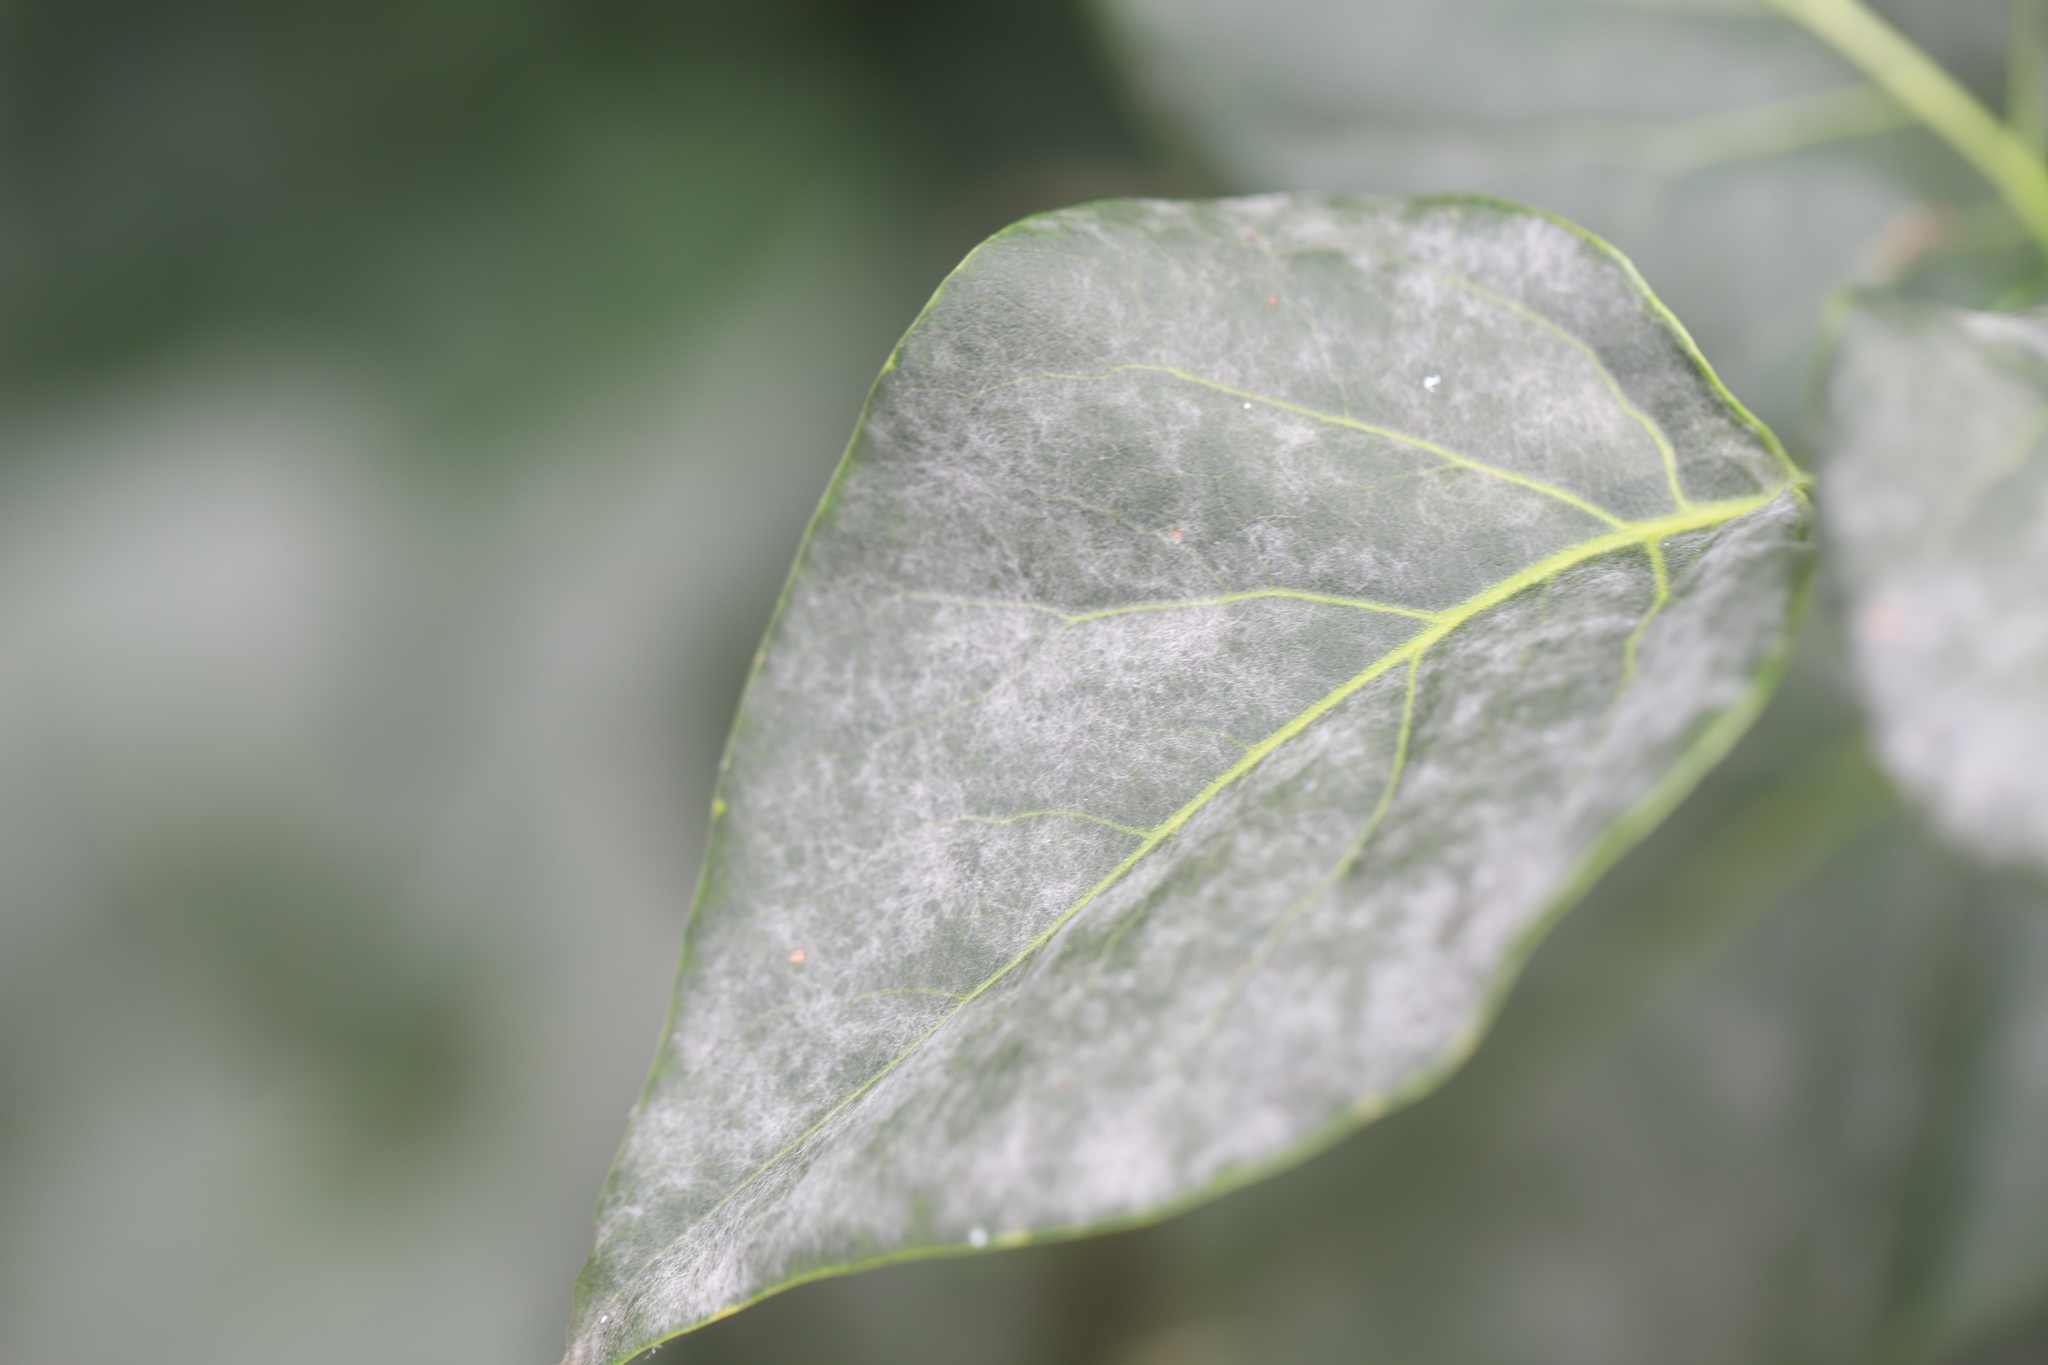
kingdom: Fungi
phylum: Ascomycota
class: Leotiomycetes
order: Helotiales
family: Erysiphaceae
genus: Erysiphe
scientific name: Erysiphe syringae
